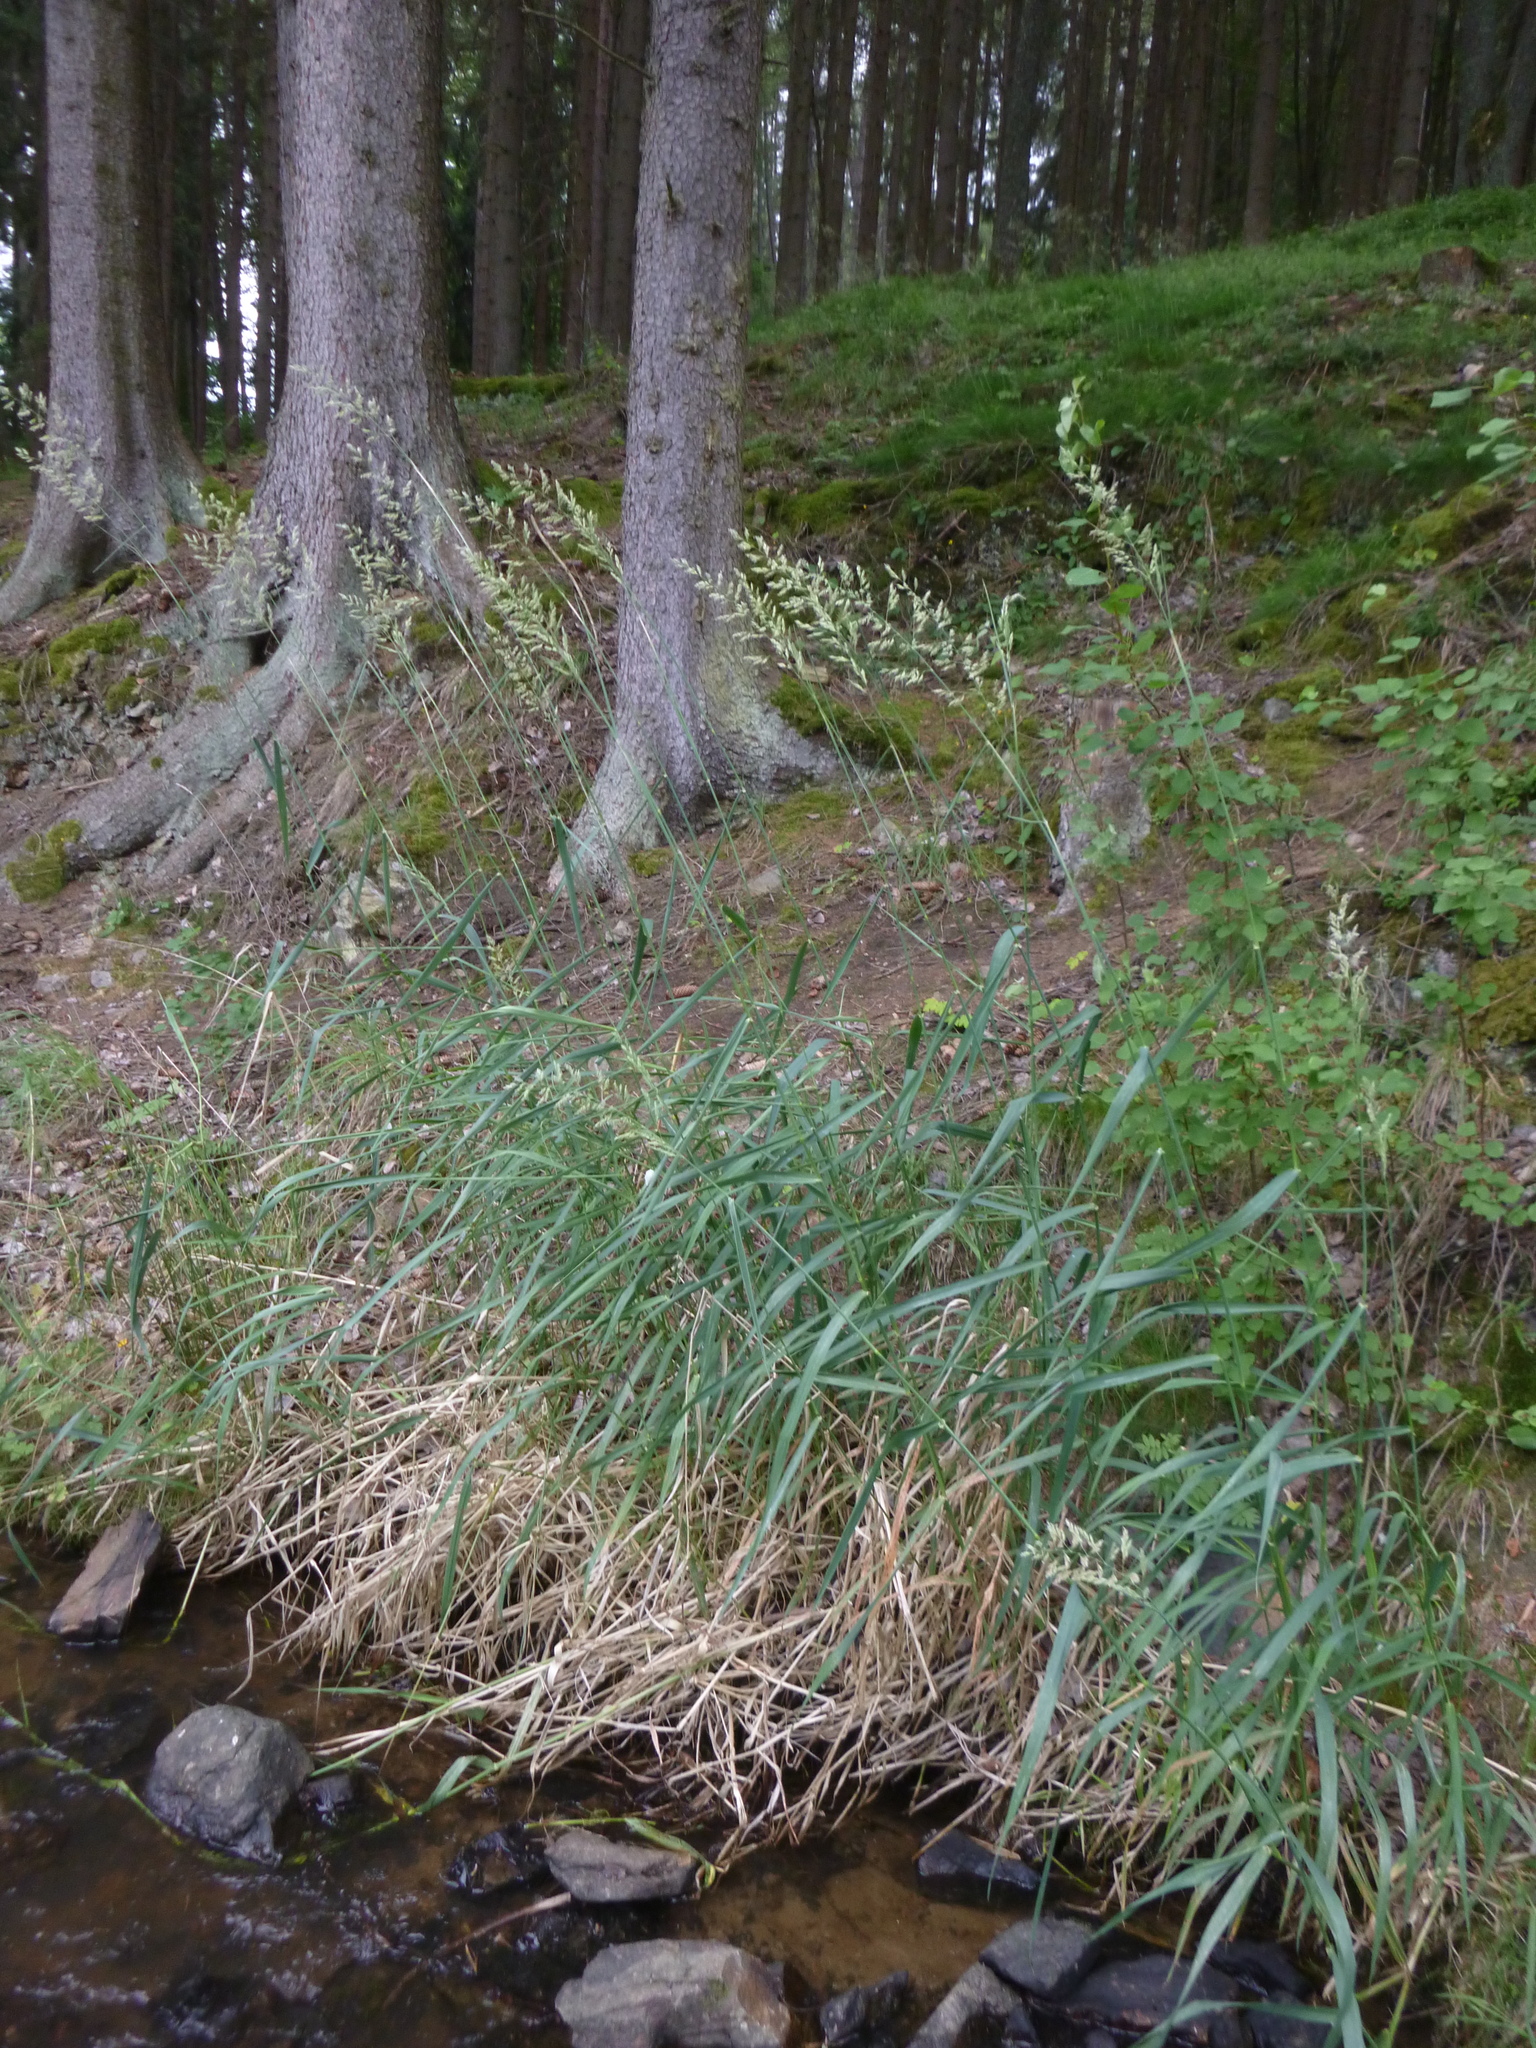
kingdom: Plantae
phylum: Tracheophyta
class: Liliopsida
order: Poales
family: Poaceae
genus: Phalaris
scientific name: Phalaris arundinacea
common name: Reed canary-grass
